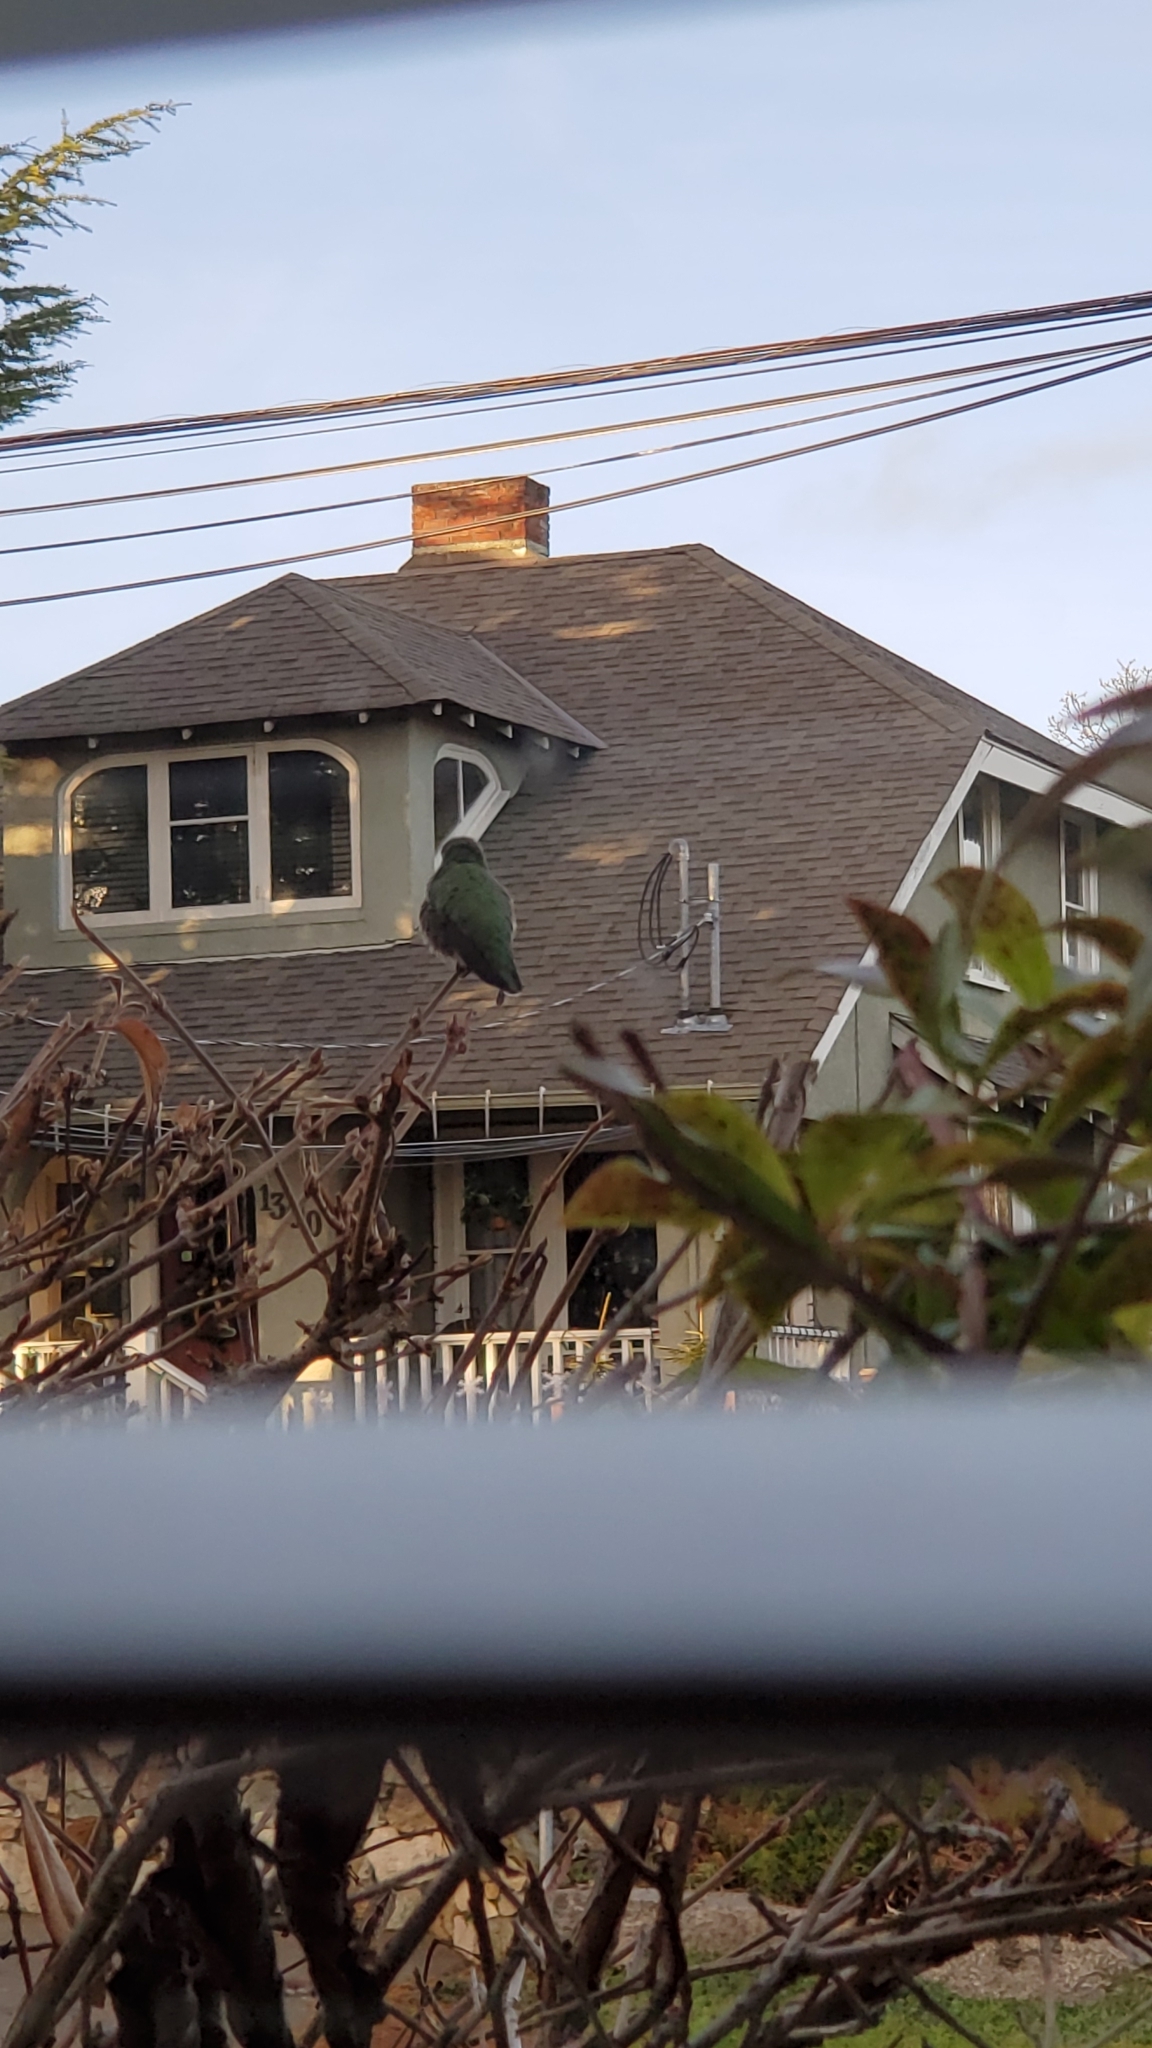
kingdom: Animalia
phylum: Chordata
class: Aves
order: Apodiformes
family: Trochilidae
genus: Calypte
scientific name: Calypte anna
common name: Anna's hummingbird
